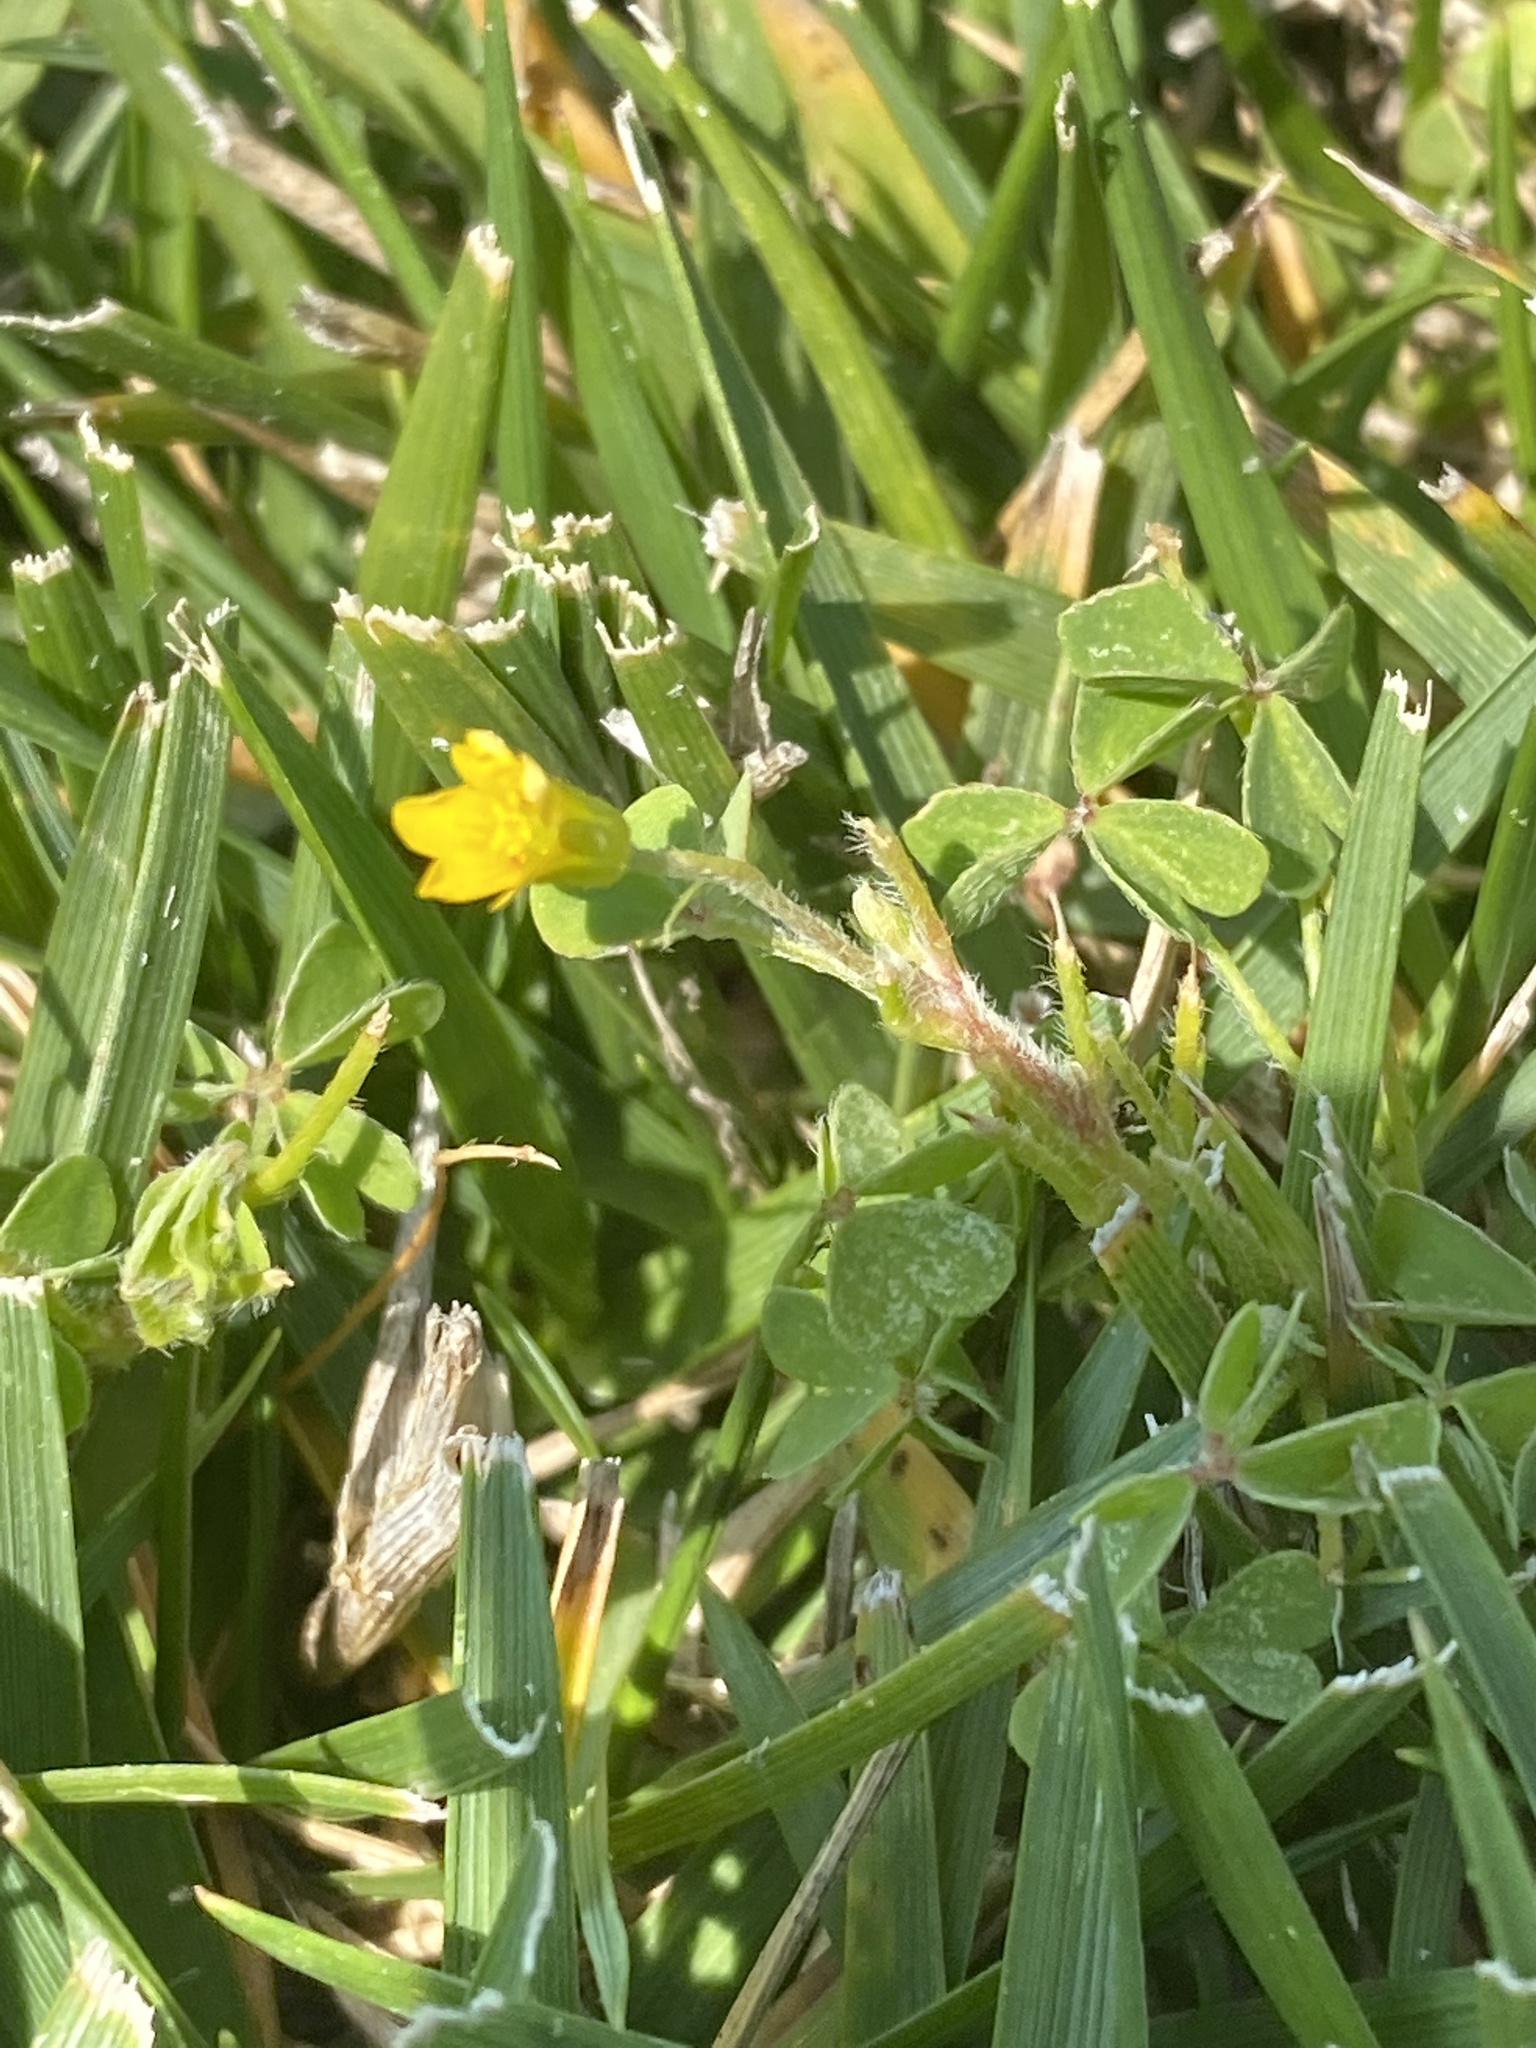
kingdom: Plantae
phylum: Tracheophyta
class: Magnoliopsida
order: Oxalidales
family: Oxalidaceae
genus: Oxalis
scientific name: Oxalis corniculata
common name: Procumbent yellow-sorrel
